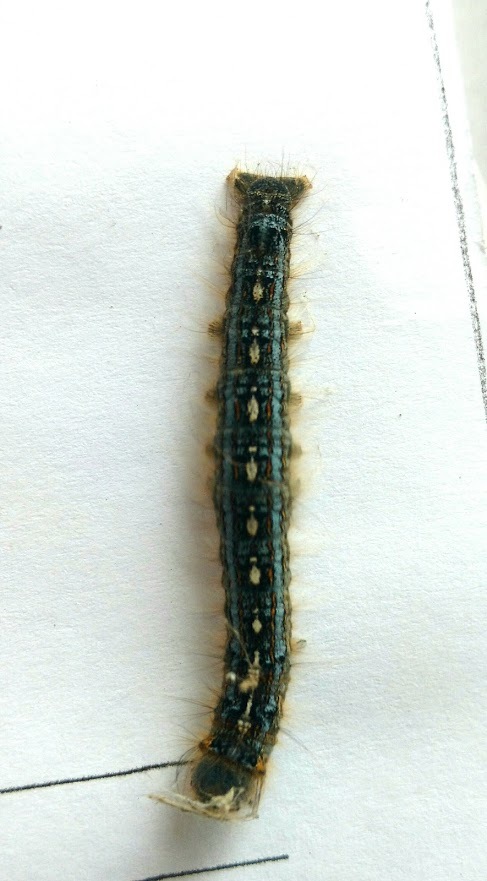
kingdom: Animalia
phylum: Arthropoda
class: Insecta
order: Lepidoptera
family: Lasiocampidae
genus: Malacosoma
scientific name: Malacosoma disstria
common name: Forest tent caterpillar
